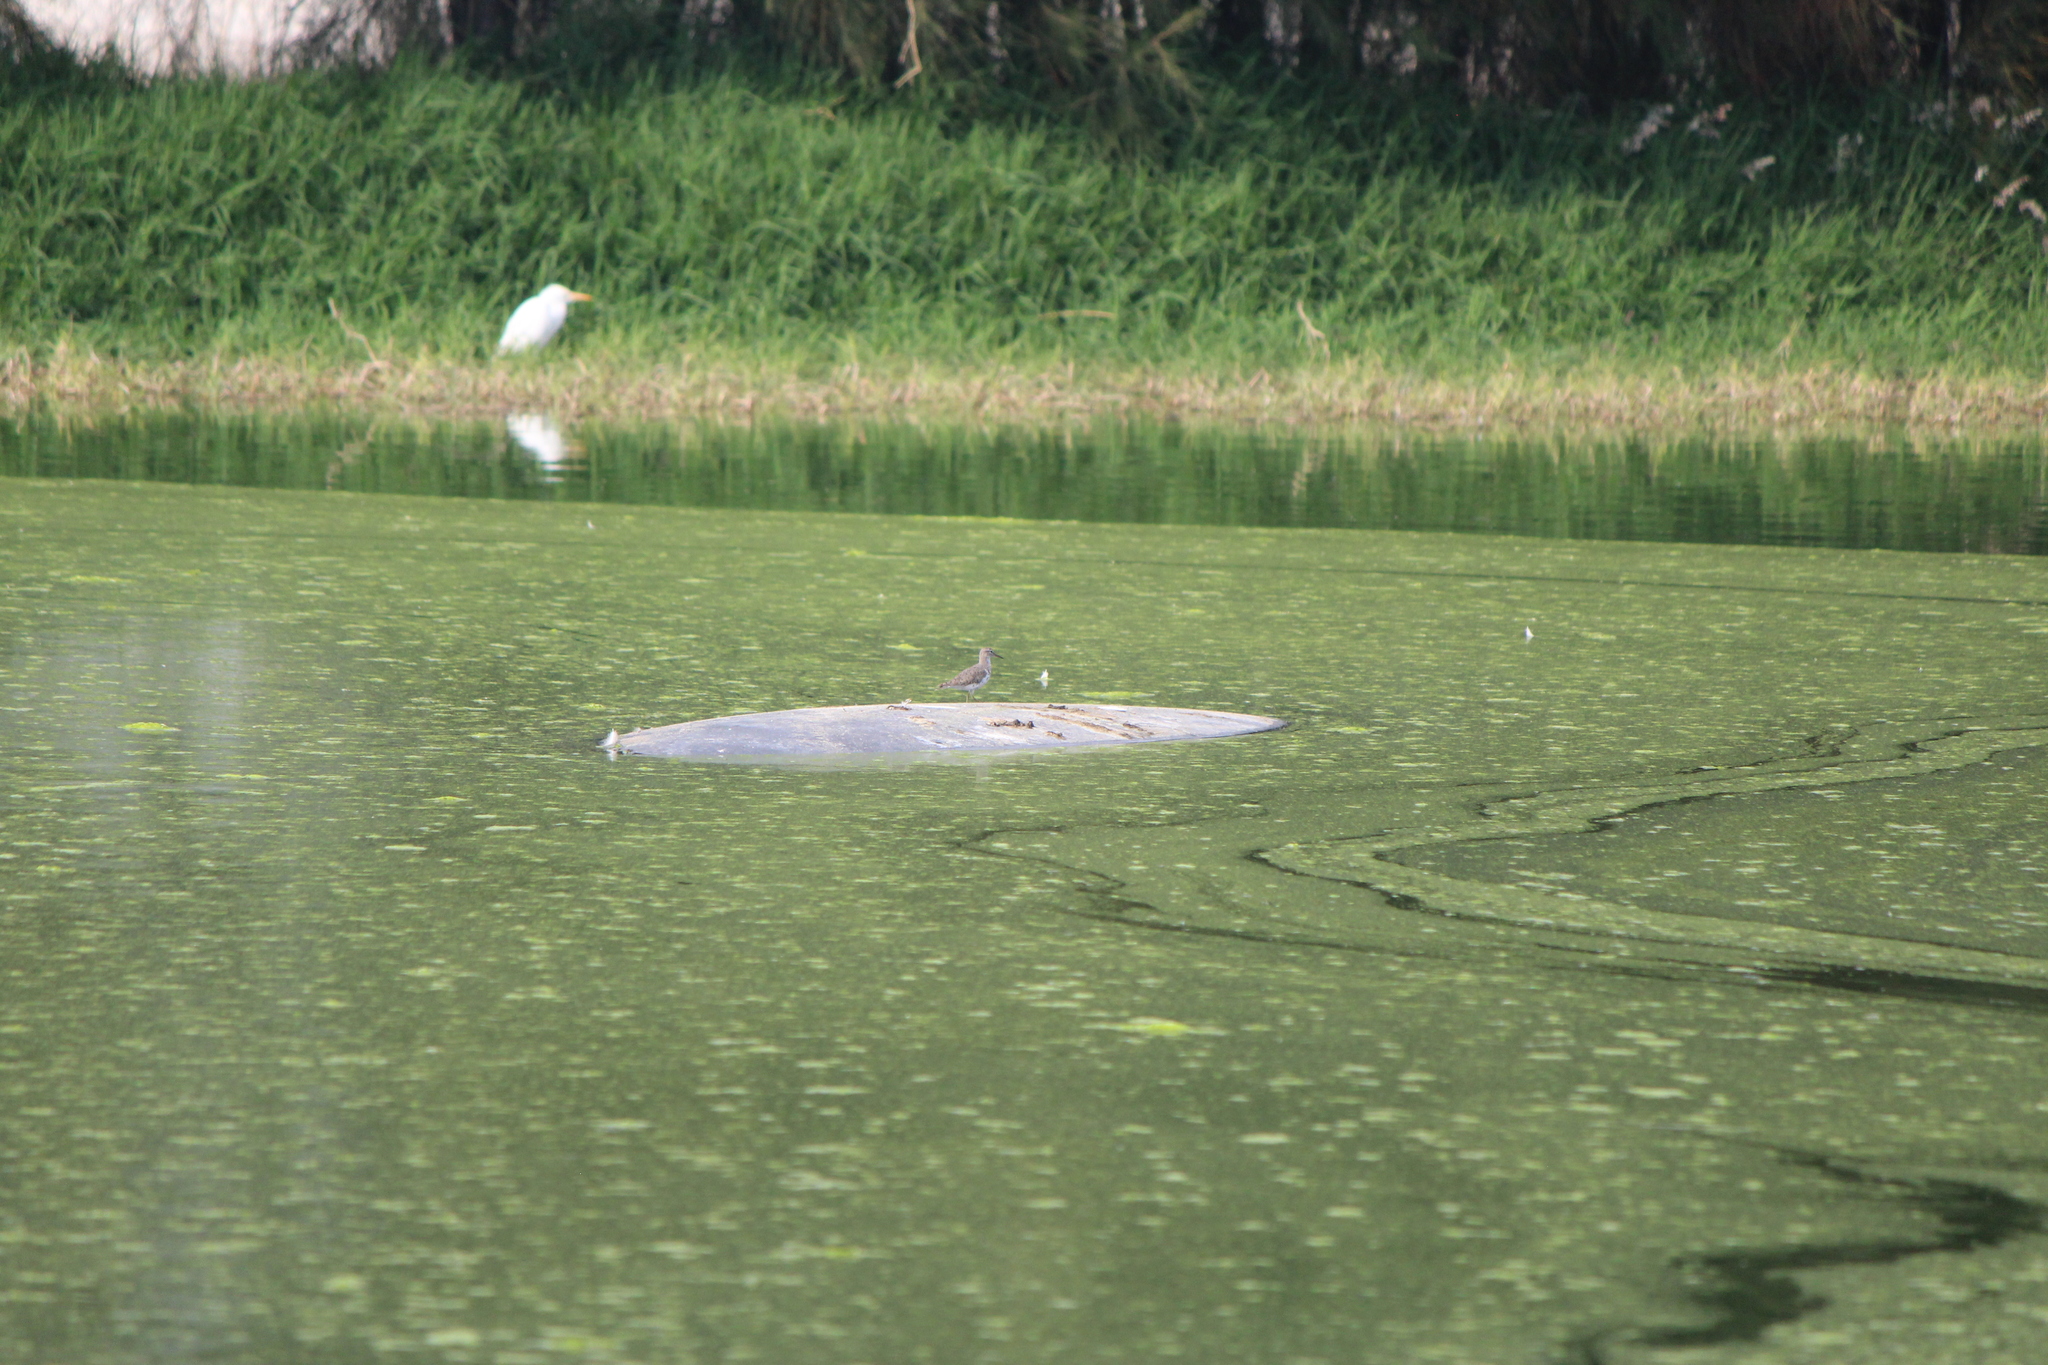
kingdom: Animalia
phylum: Chordata
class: Aves
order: Charadriiformes
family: Scolopacidae
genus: Actitis
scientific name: Actitis macularius
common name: Spotted sandpiper
